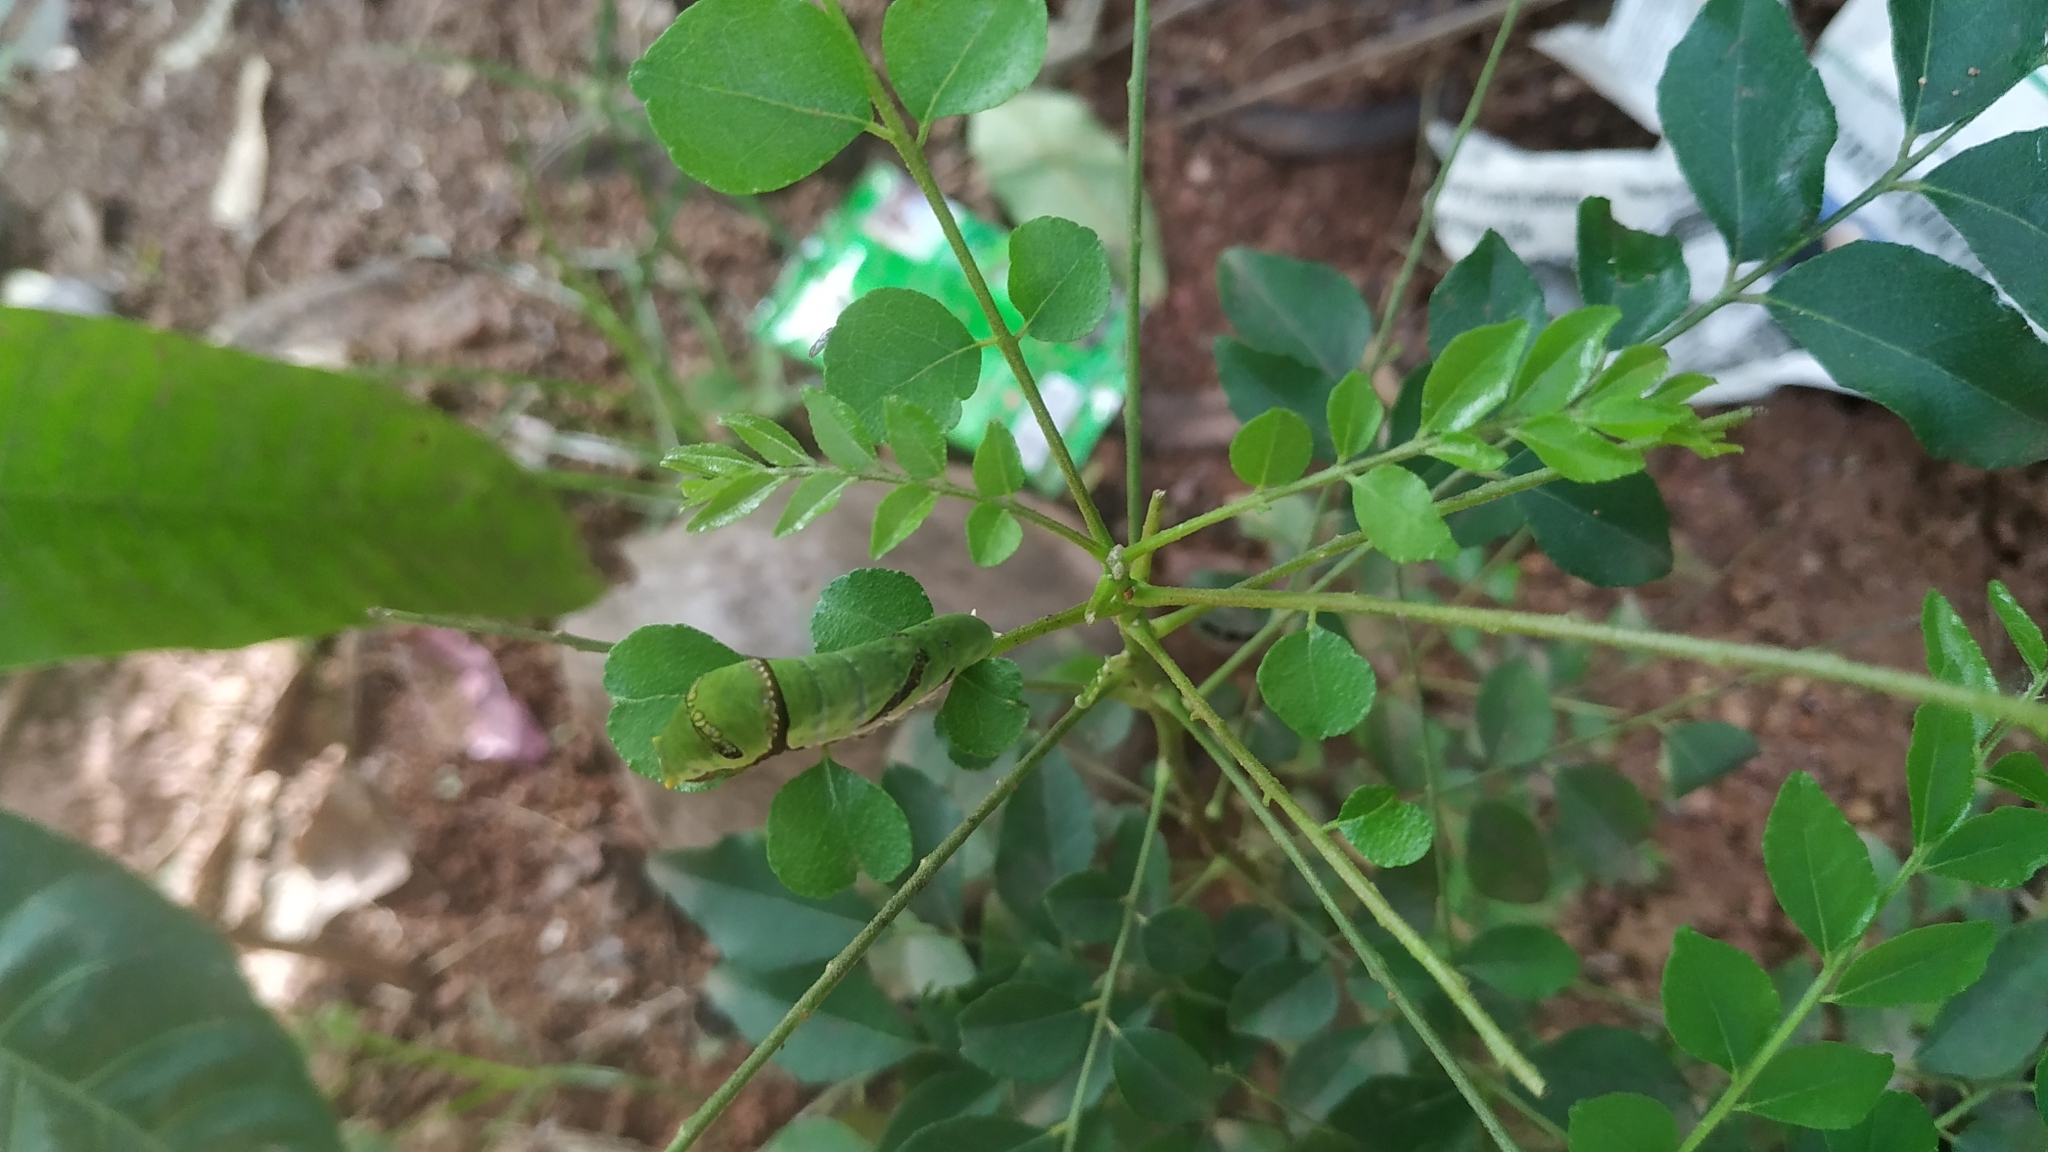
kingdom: Animalia
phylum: Arthropoda
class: Insecta
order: Lepidoptera
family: Papilionidae
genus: Papilio
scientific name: Papilio polytes
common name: Common mormon
